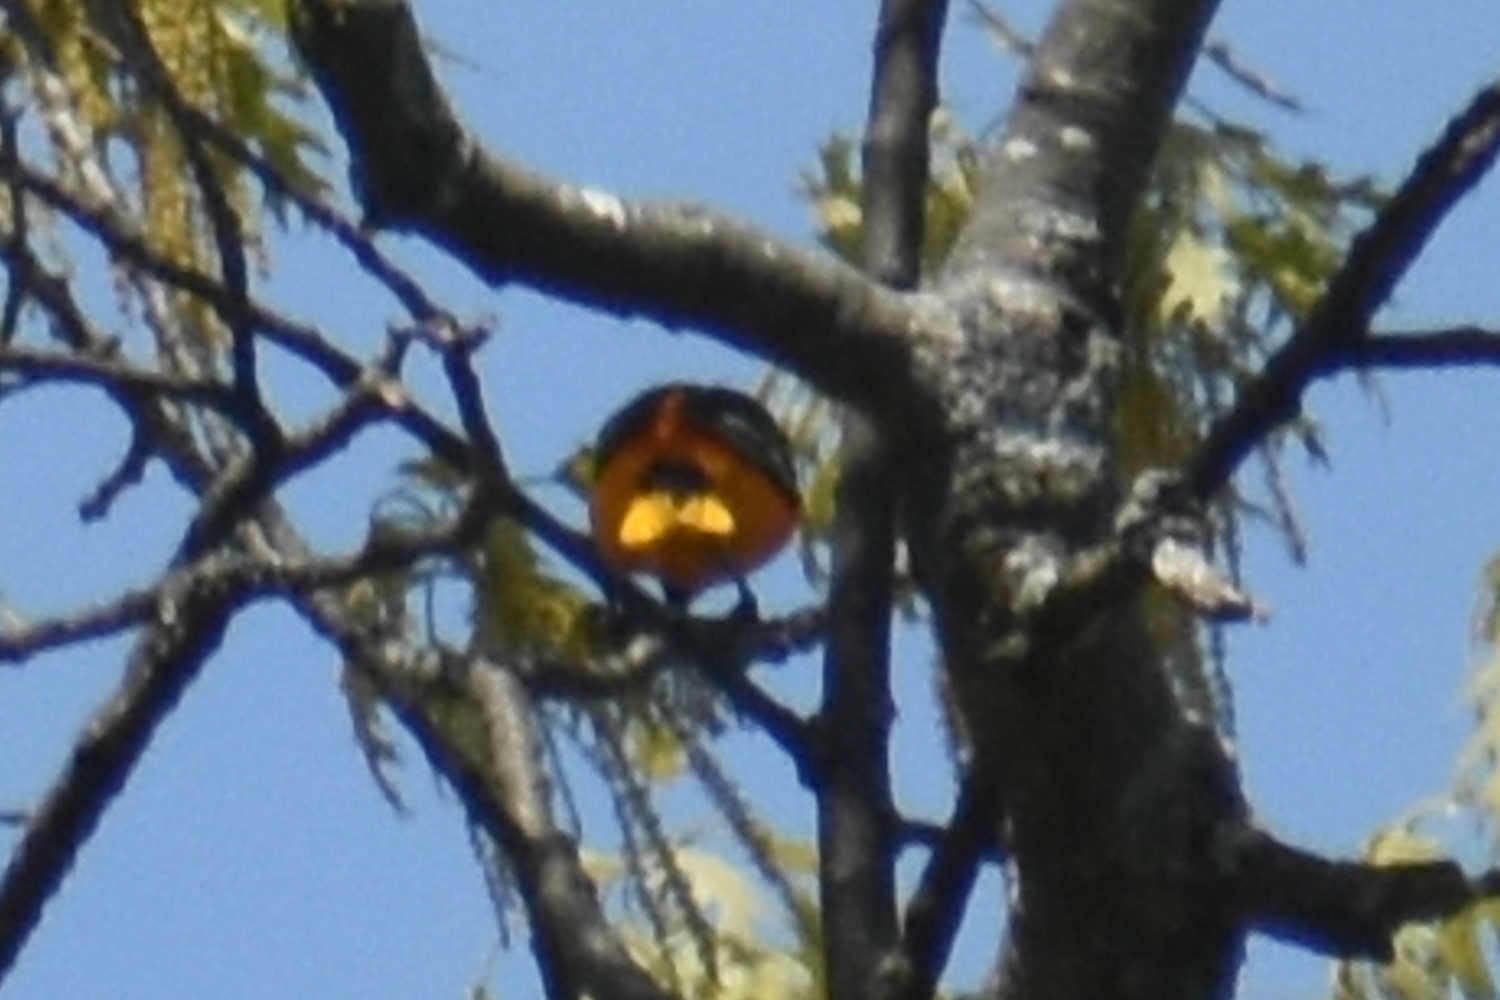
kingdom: Animalia
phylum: Chordata
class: Aves
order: Passeriformes
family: Icteridae
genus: Icterus
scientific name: Icterus galbula
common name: Baltimore oriole
